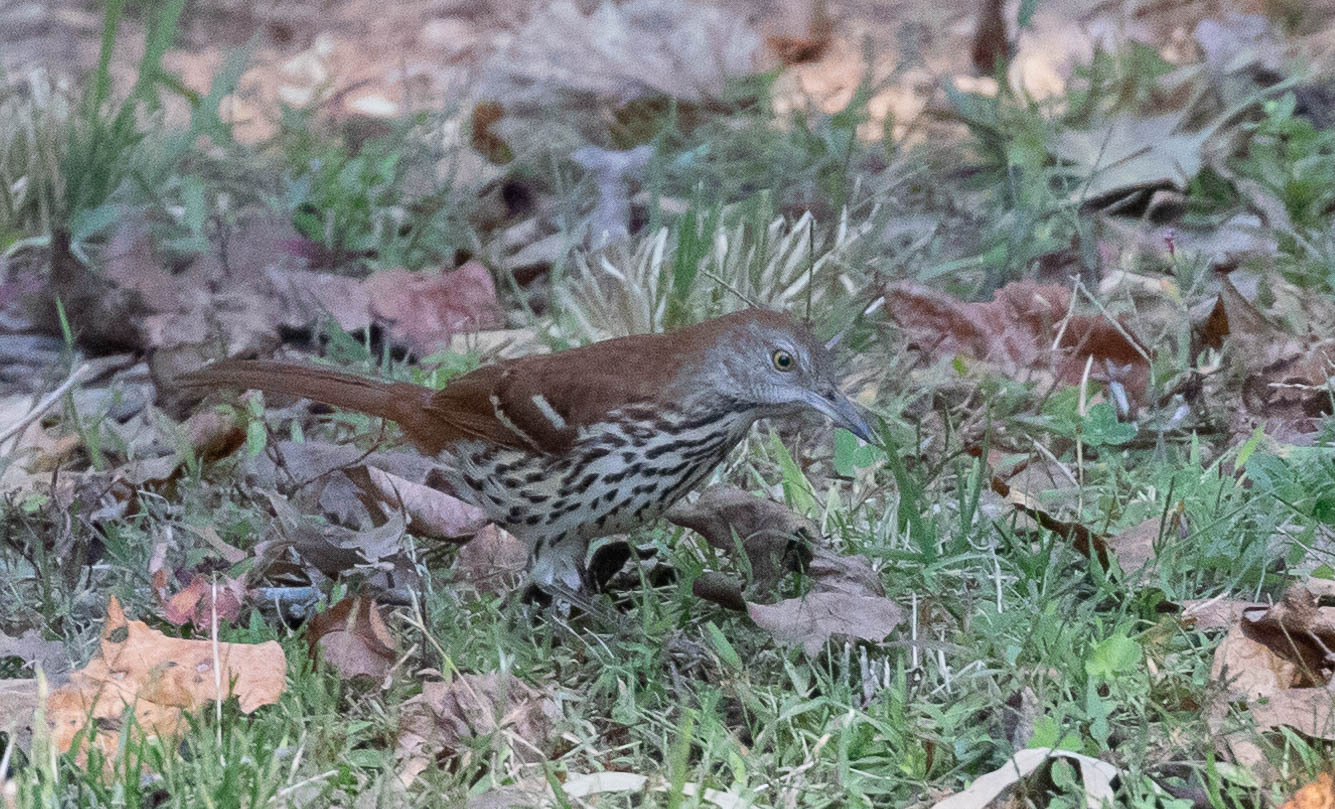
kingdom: Animalia
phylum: Chordata
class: Aves
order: Passeriformes
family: Mimidae
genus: Toxostoma
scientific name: Toxostoma rufum
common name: Brown thrasher
